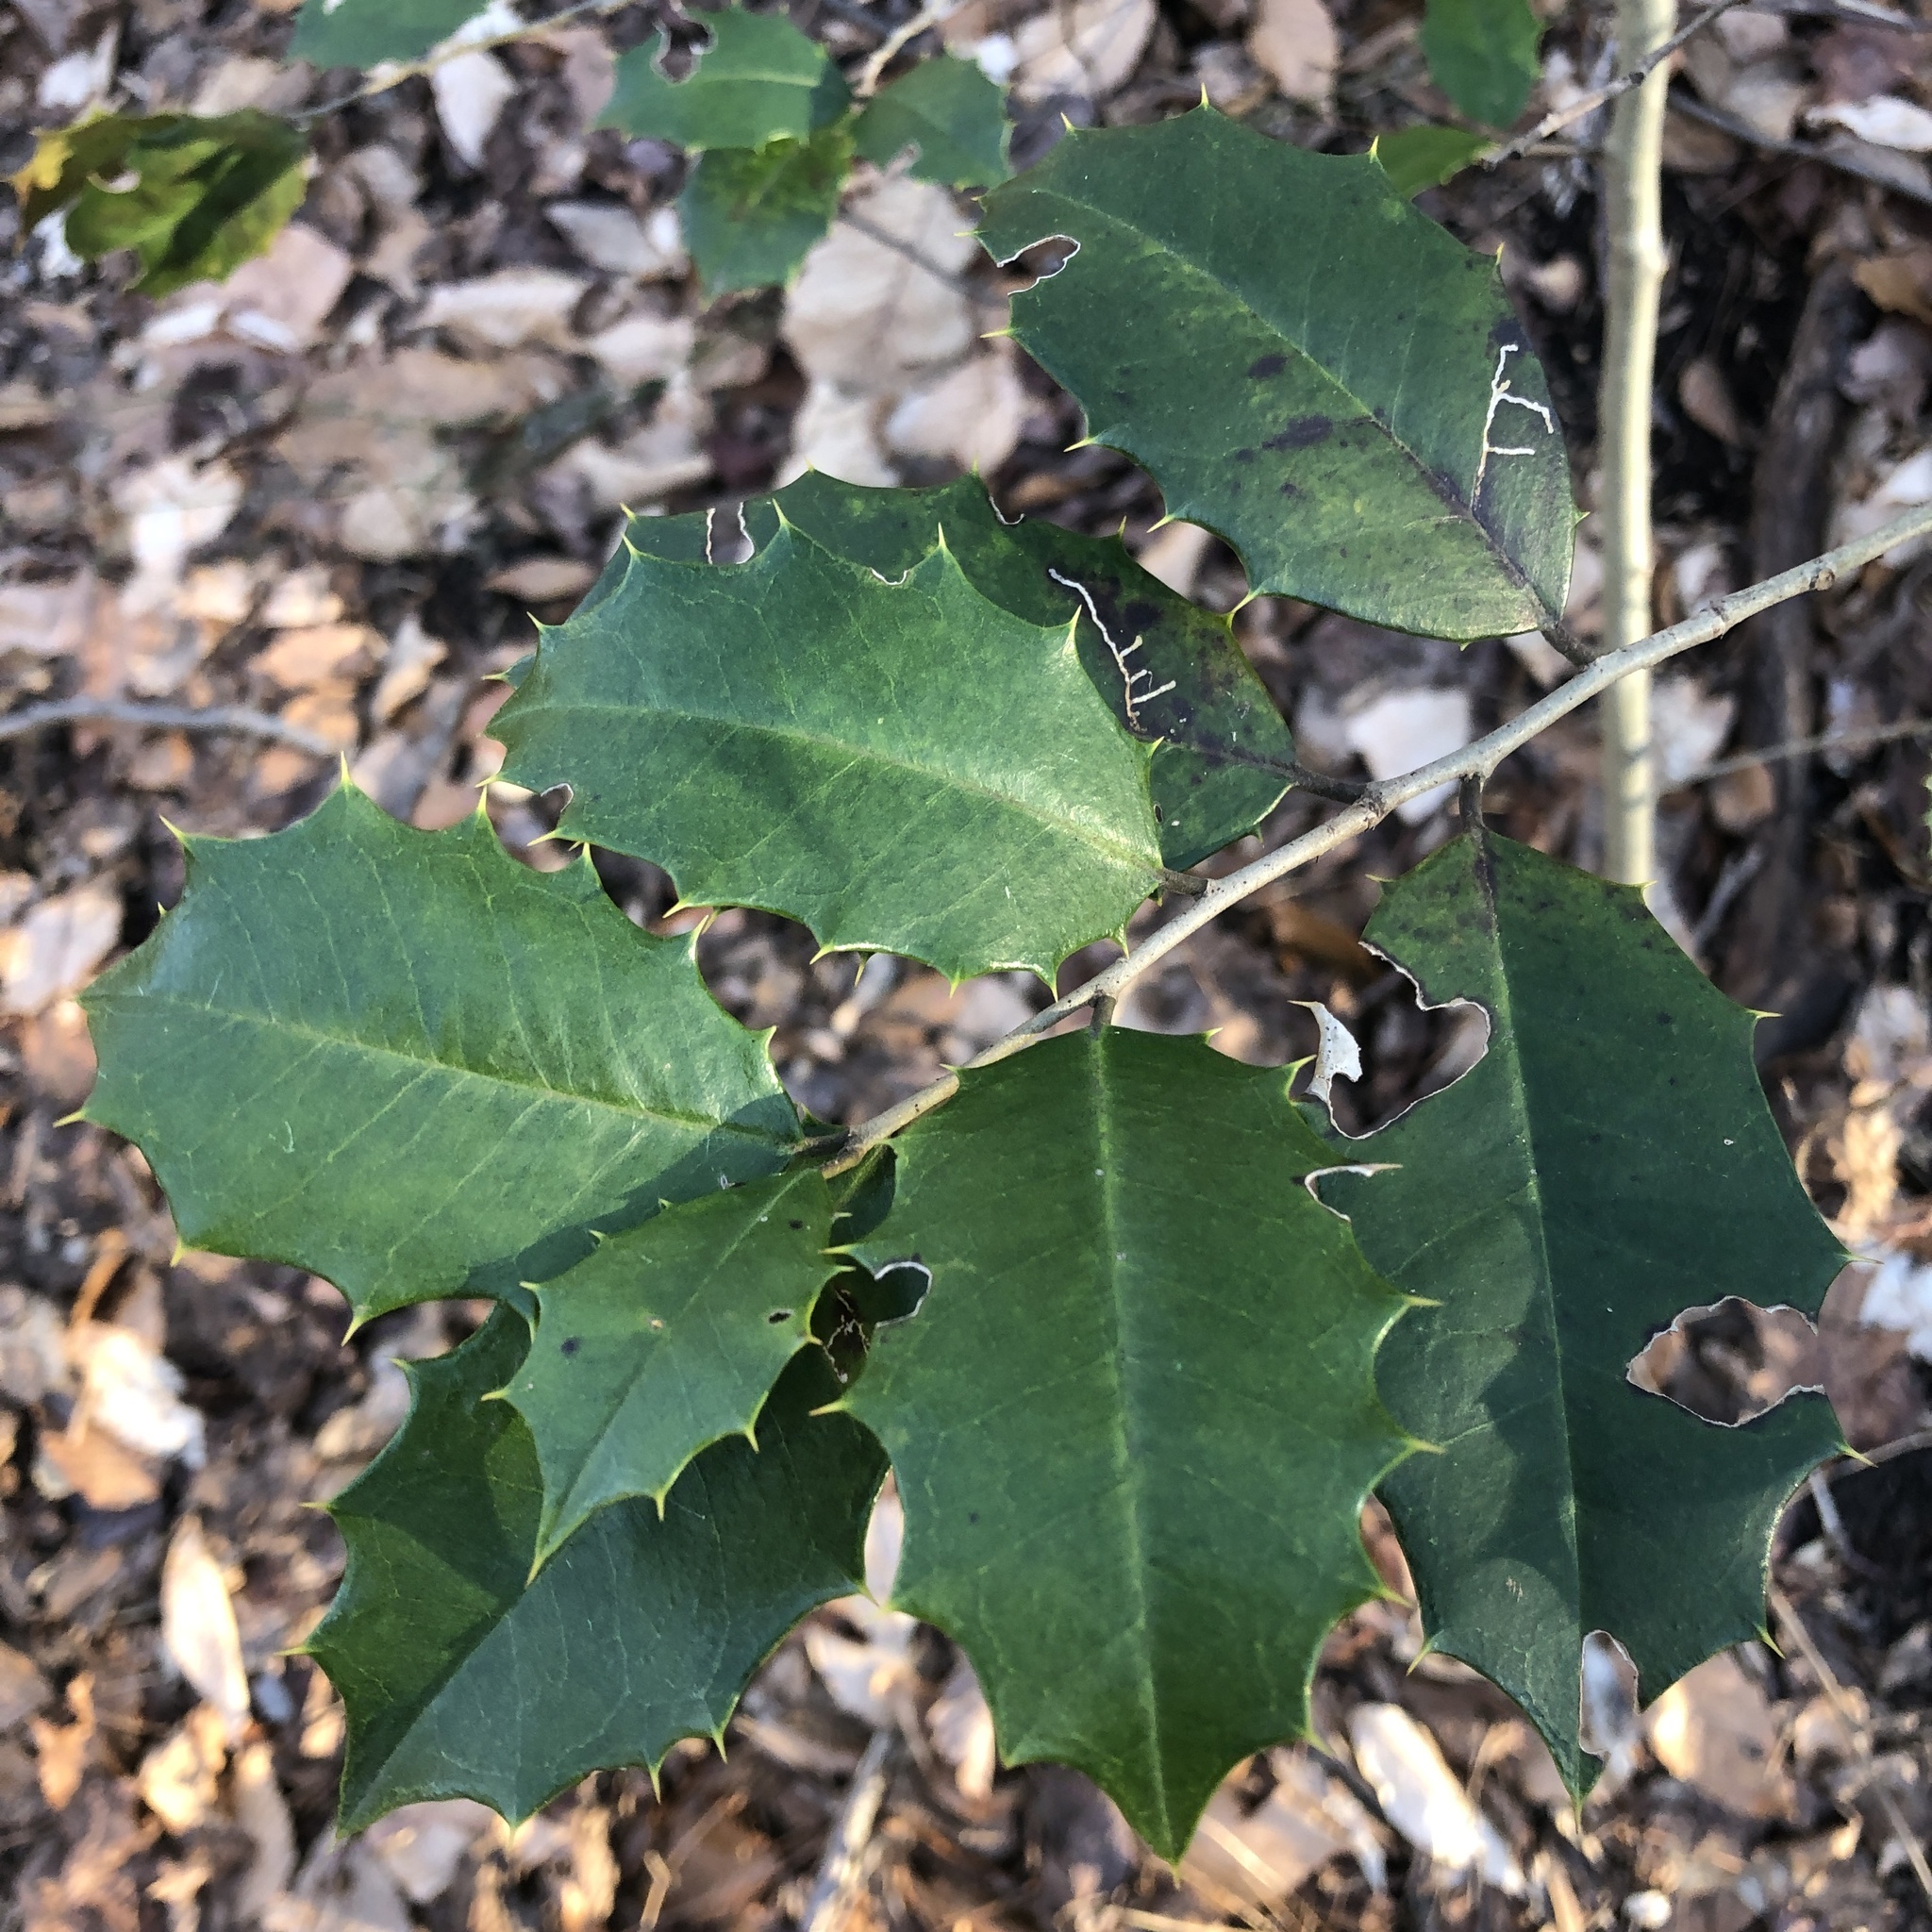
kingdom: Plantae
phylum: Tracheophyta
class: Magnoliopsida
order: Aquifoliales
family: Aquifoliaceae
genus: Ilex
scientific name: Ilex opaca
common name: American holly
